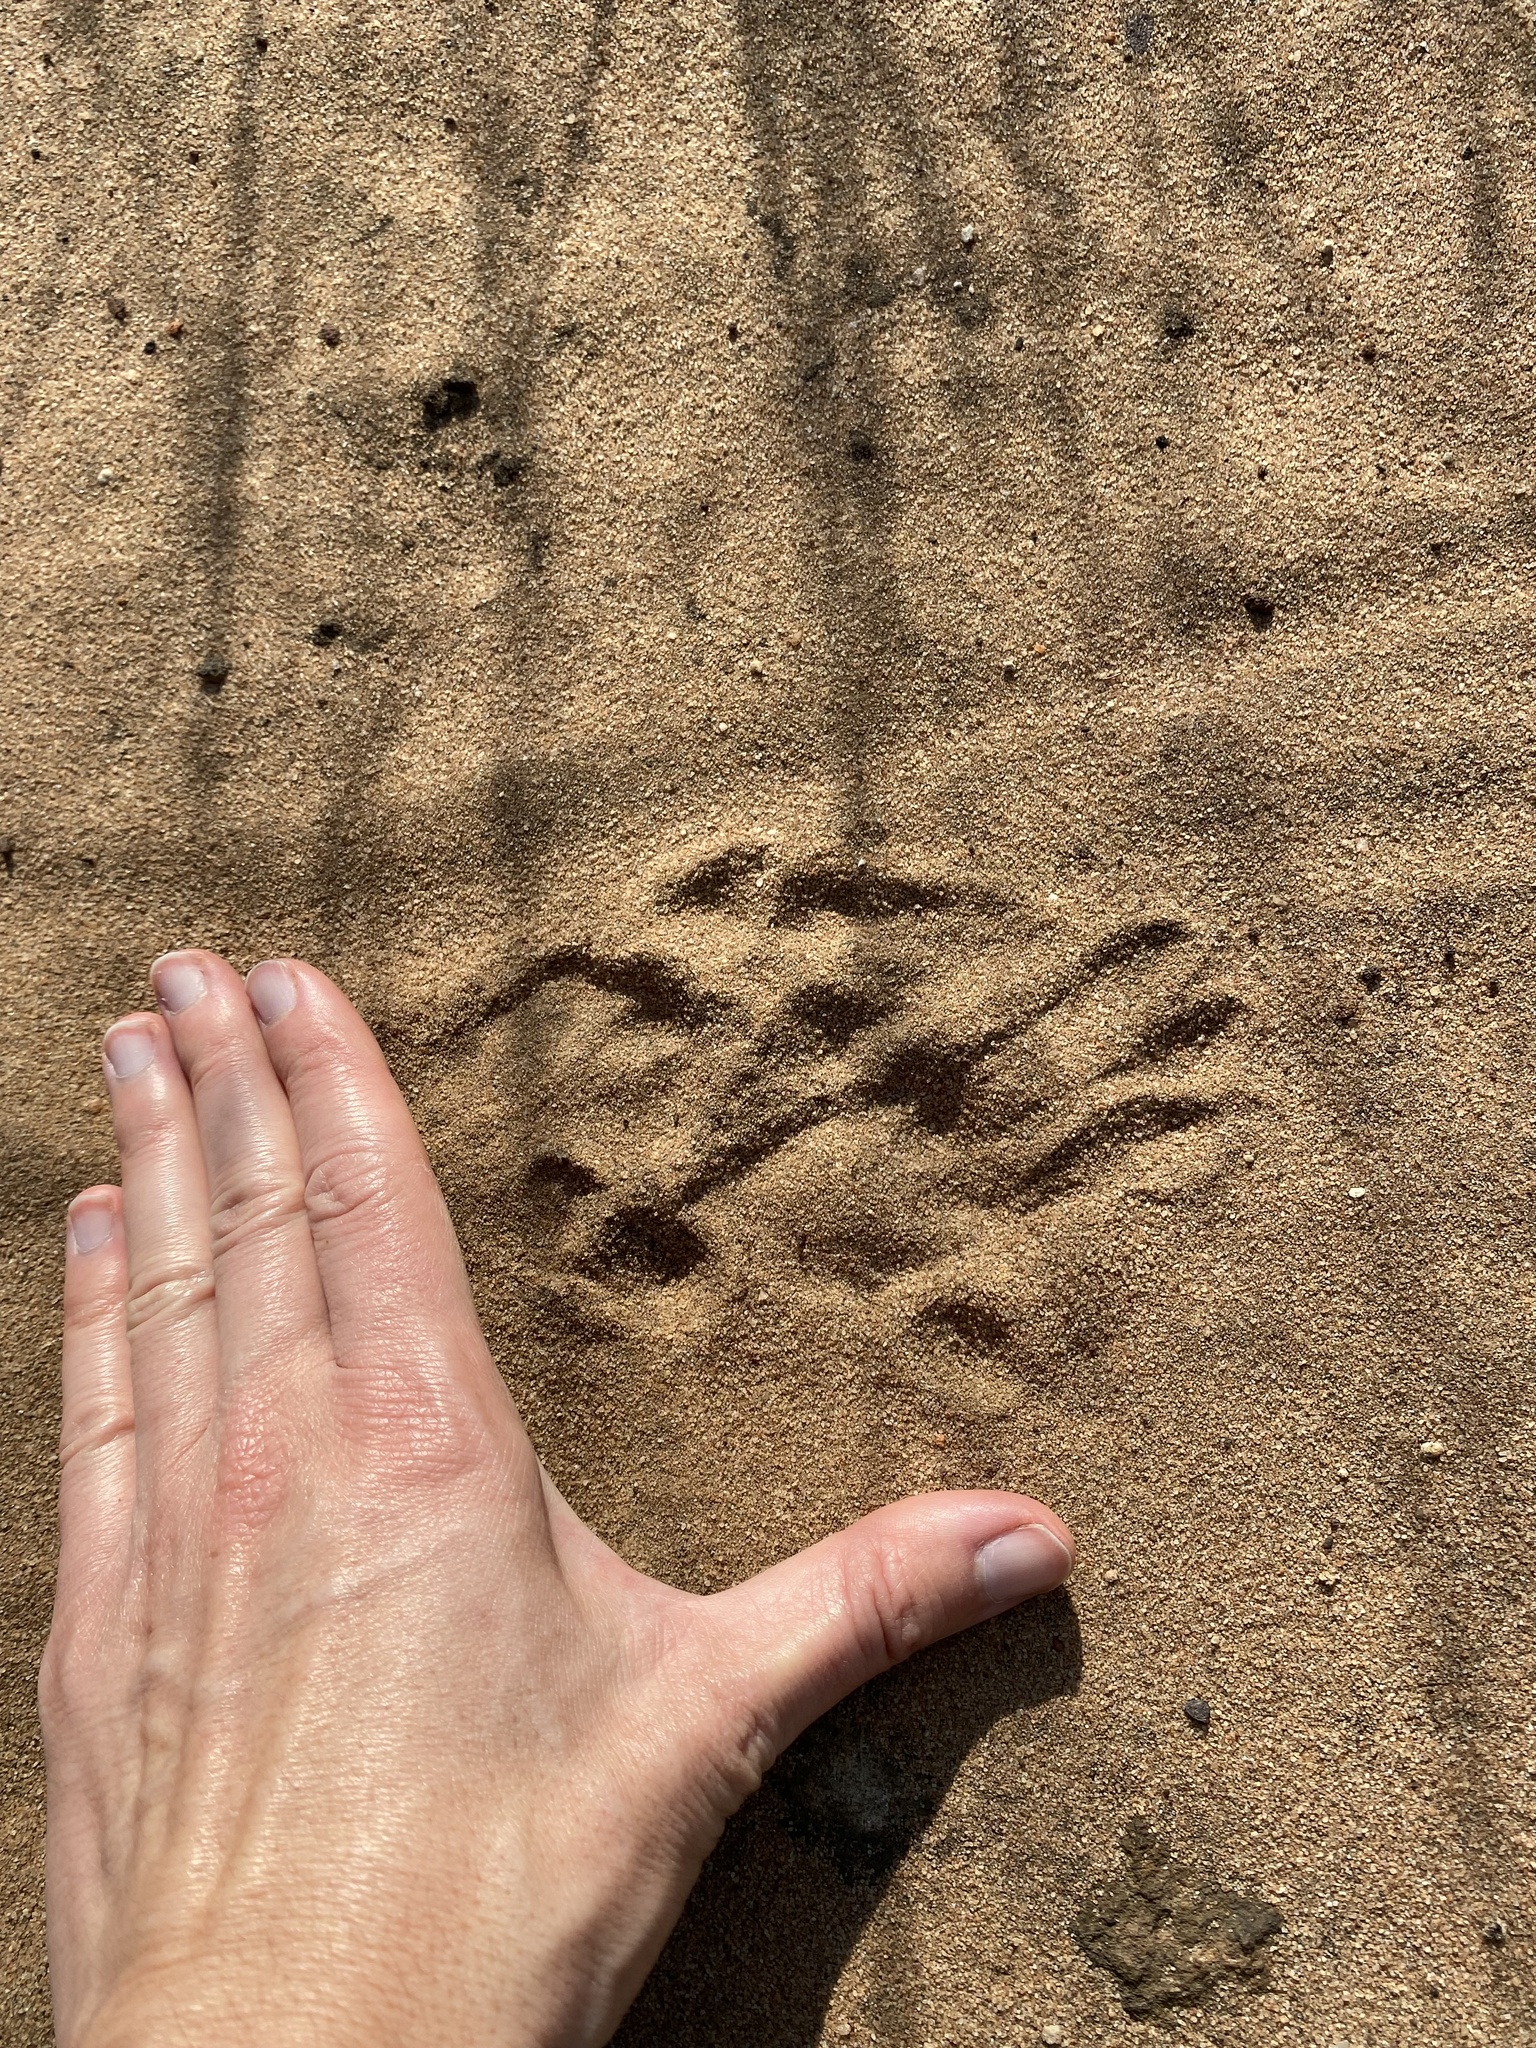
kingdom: Animalia
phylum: Chordata
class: Mammalia
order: Primates
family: Cercopithecidae
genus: Chlorocebus
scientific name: Chlorocebus pygerythrus
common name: Vervet monkey
